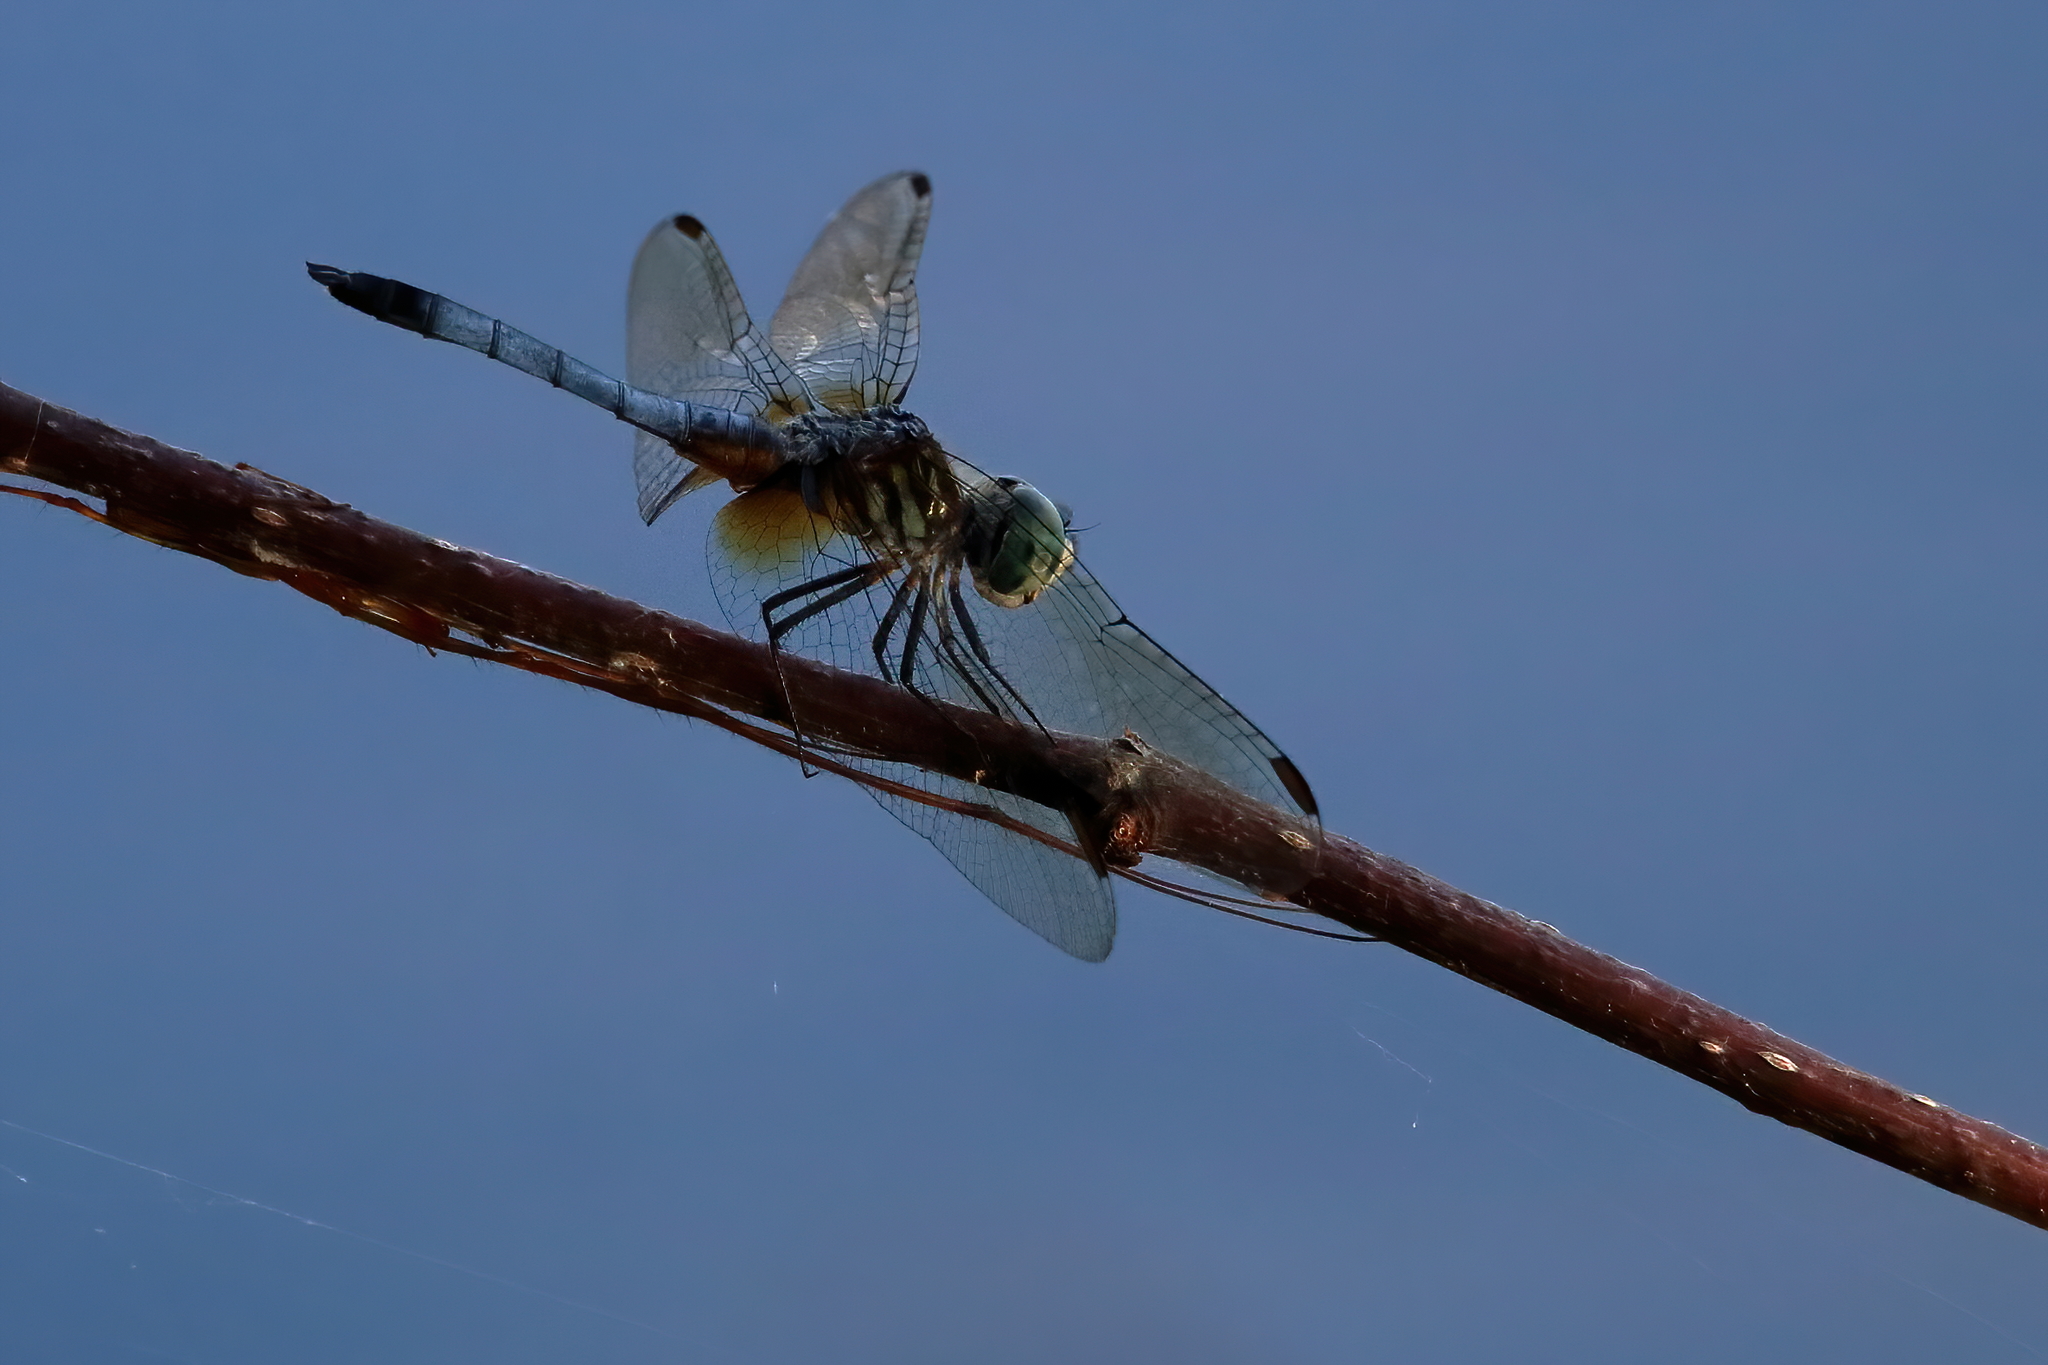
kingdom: Animalia
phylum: Arthropoda
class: Insecta
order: Odonata
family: Libellulidae
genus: Pachydiplax
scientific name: Pachydiplax longipennis
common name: Blue dasher
